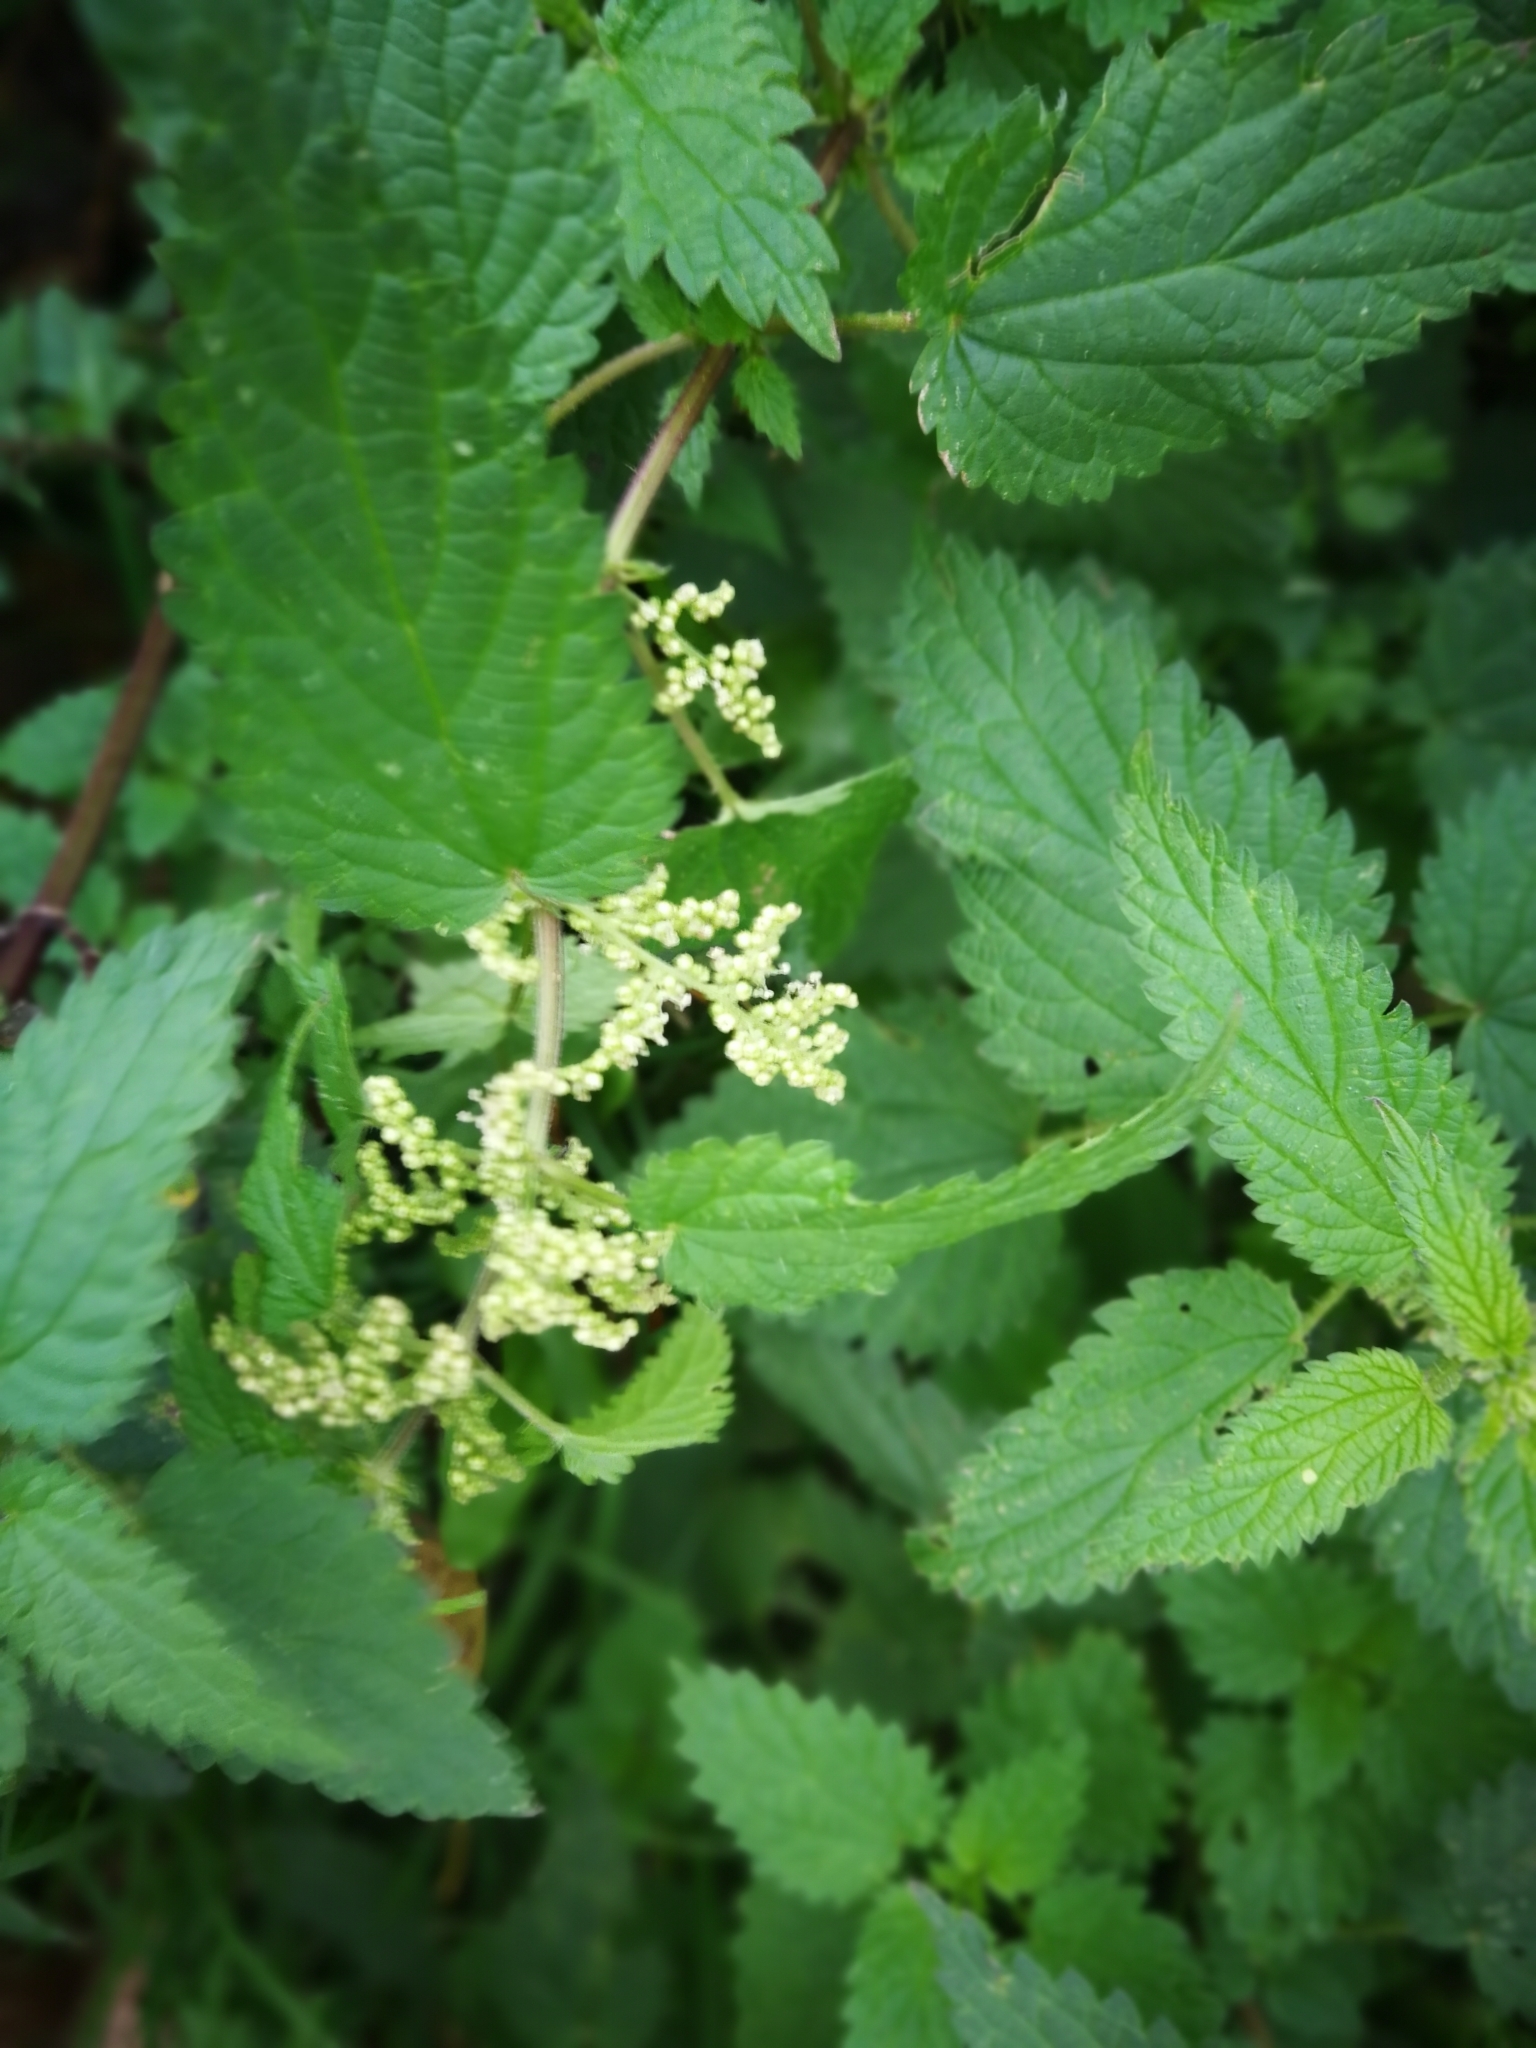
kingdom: Plantae
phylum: Tracheophyta
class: Magnoliopsida
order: Rosales
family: Urticaceae
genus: Urtica
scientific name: Urtica dioica
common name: Common nettle
